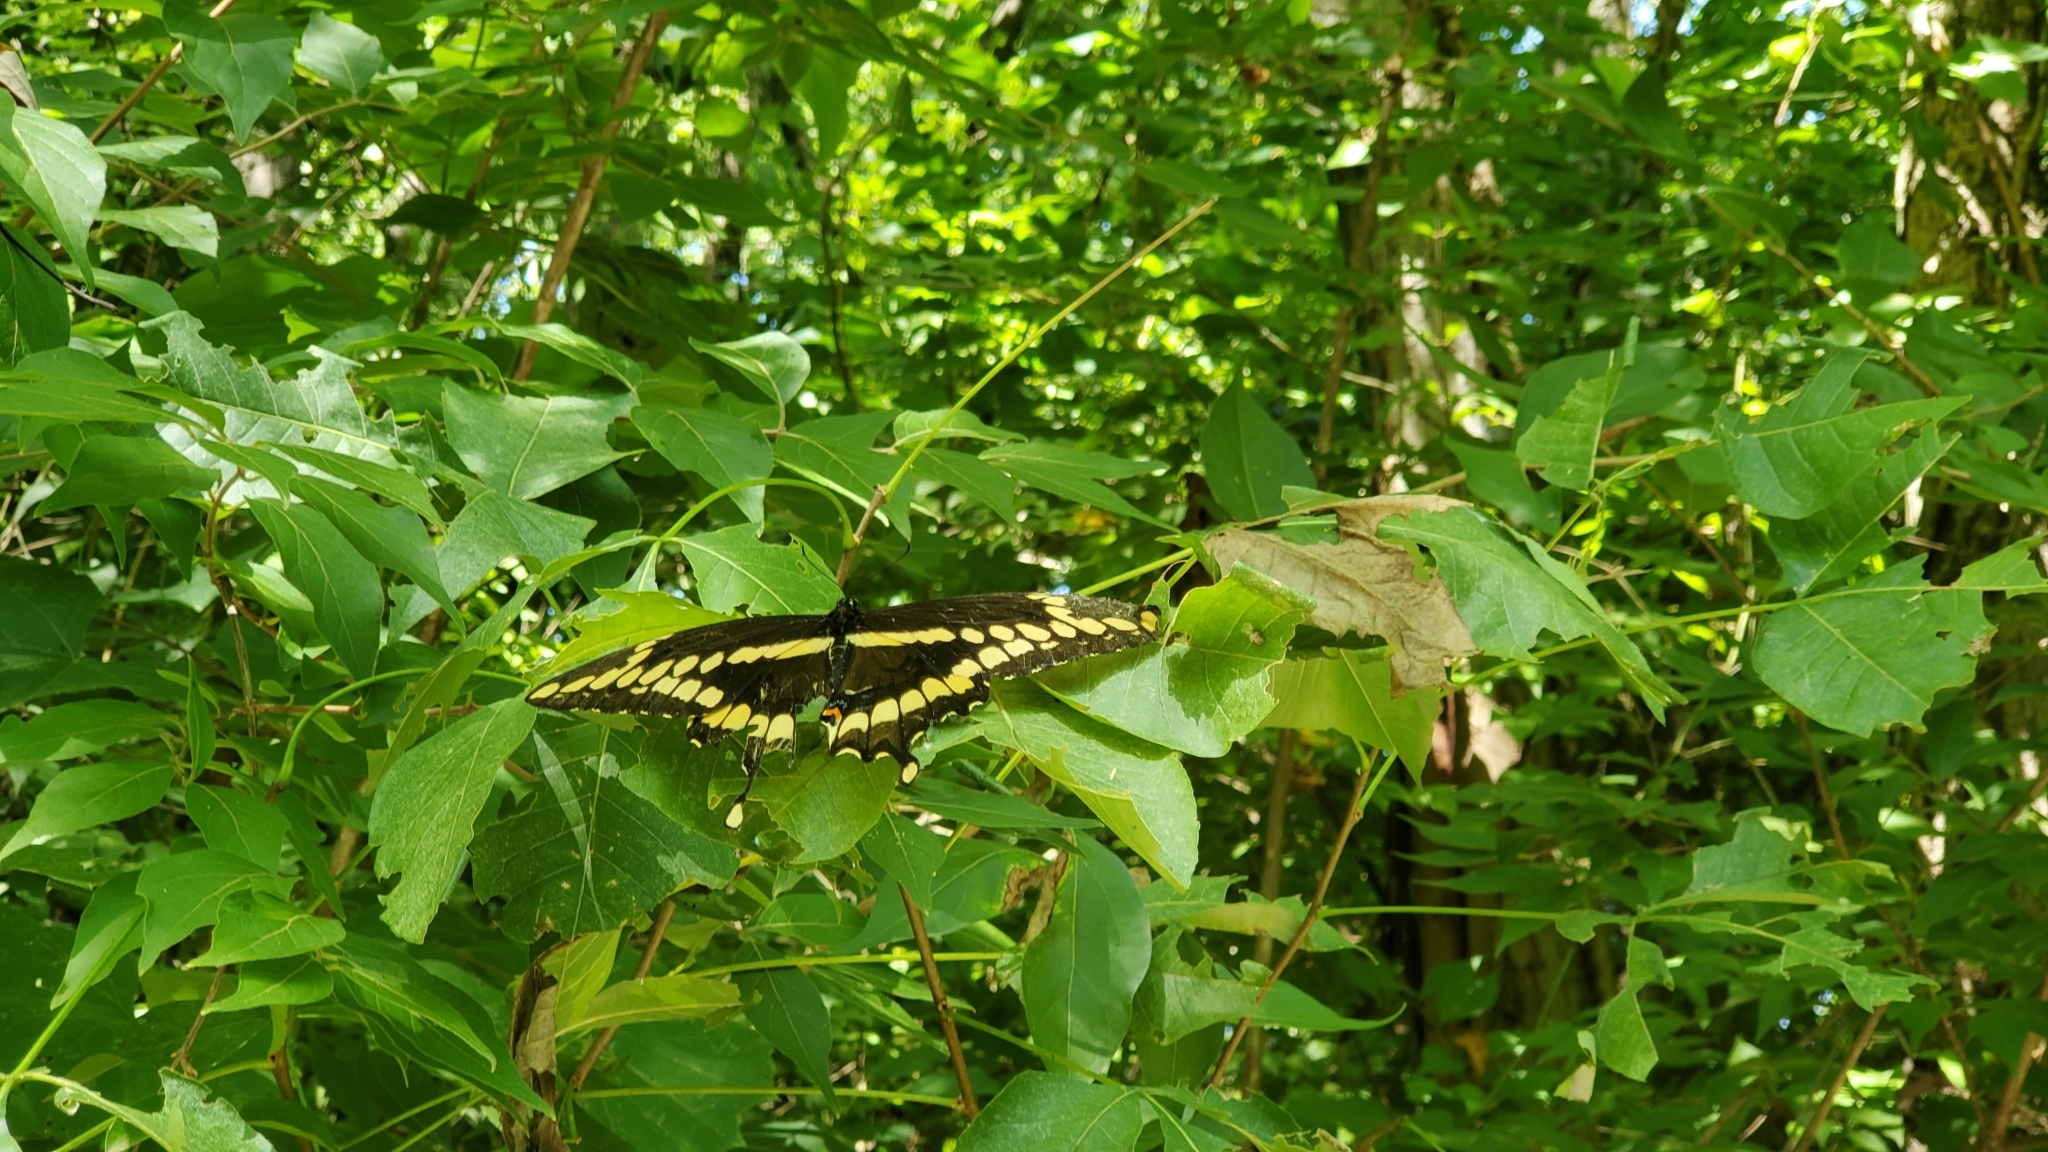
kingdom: Animalia
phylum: Arthropoda
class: Insecta
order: Lepidoptera
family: Papilionidae
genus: Papilio
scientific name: Papilio cresphontes
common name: Giant swallowtail
